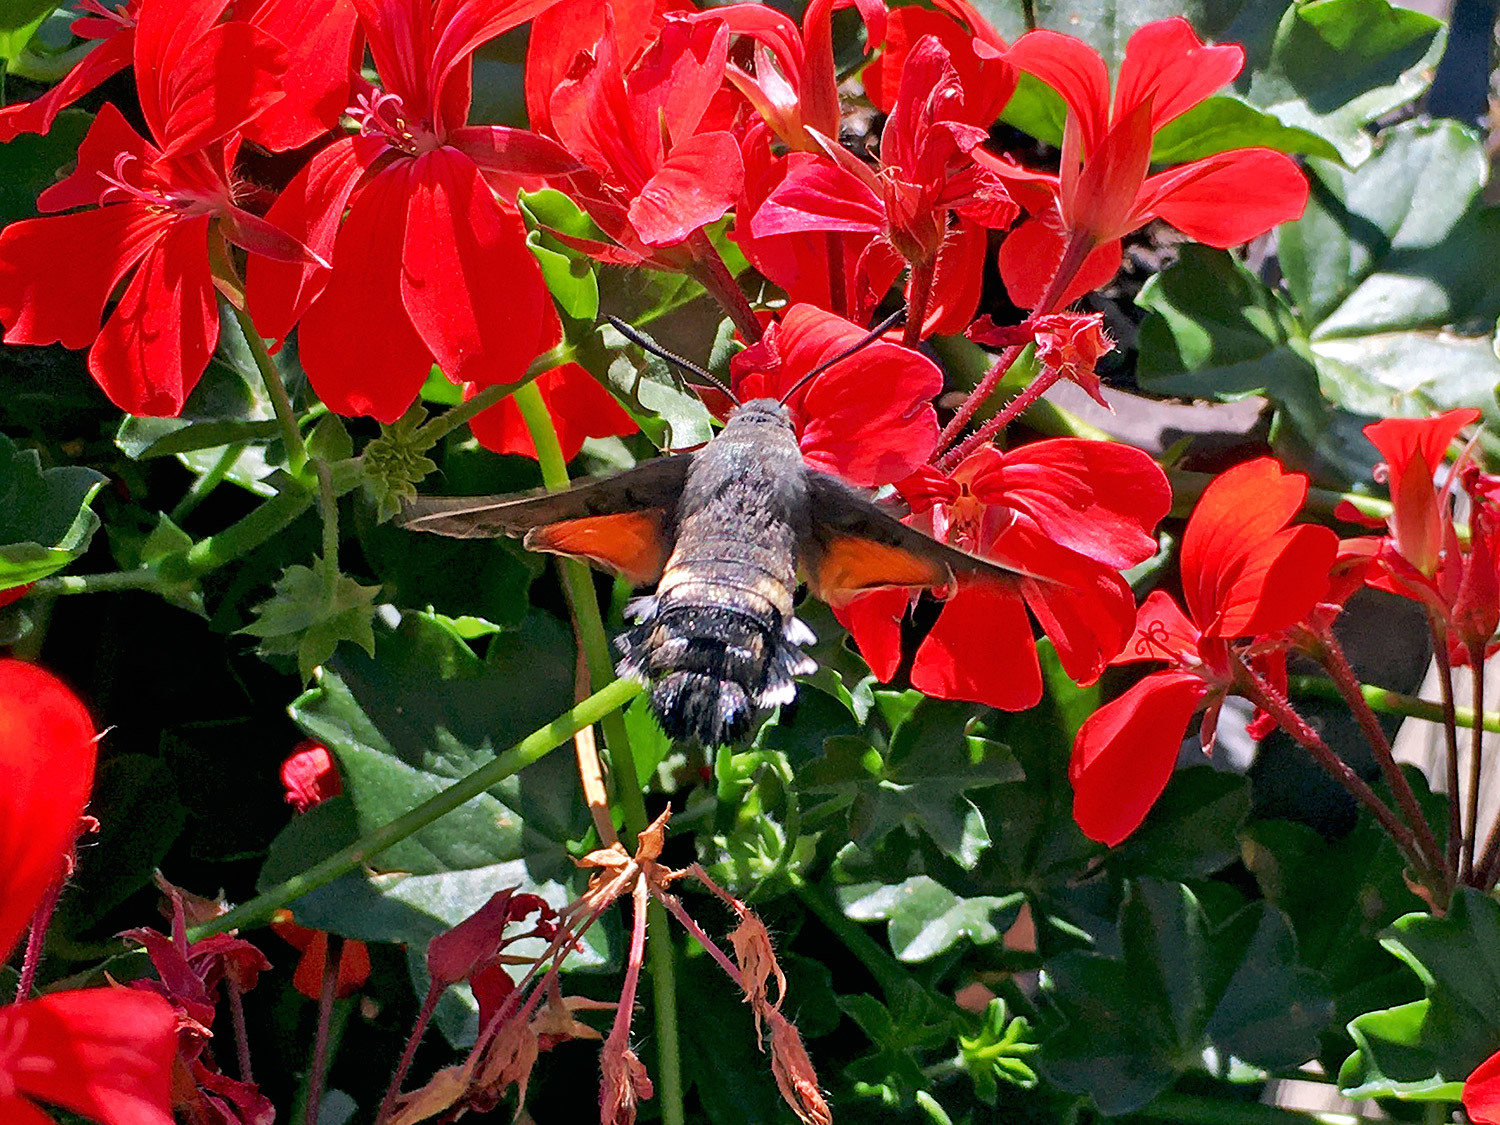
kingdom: Animalia
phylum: Arthropoda
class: Insecta
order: Lepidoptera
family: Sphingidae
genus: Macroglossum
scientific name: Macroglossum stellatarum
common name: Humming-bird hawk-moth
